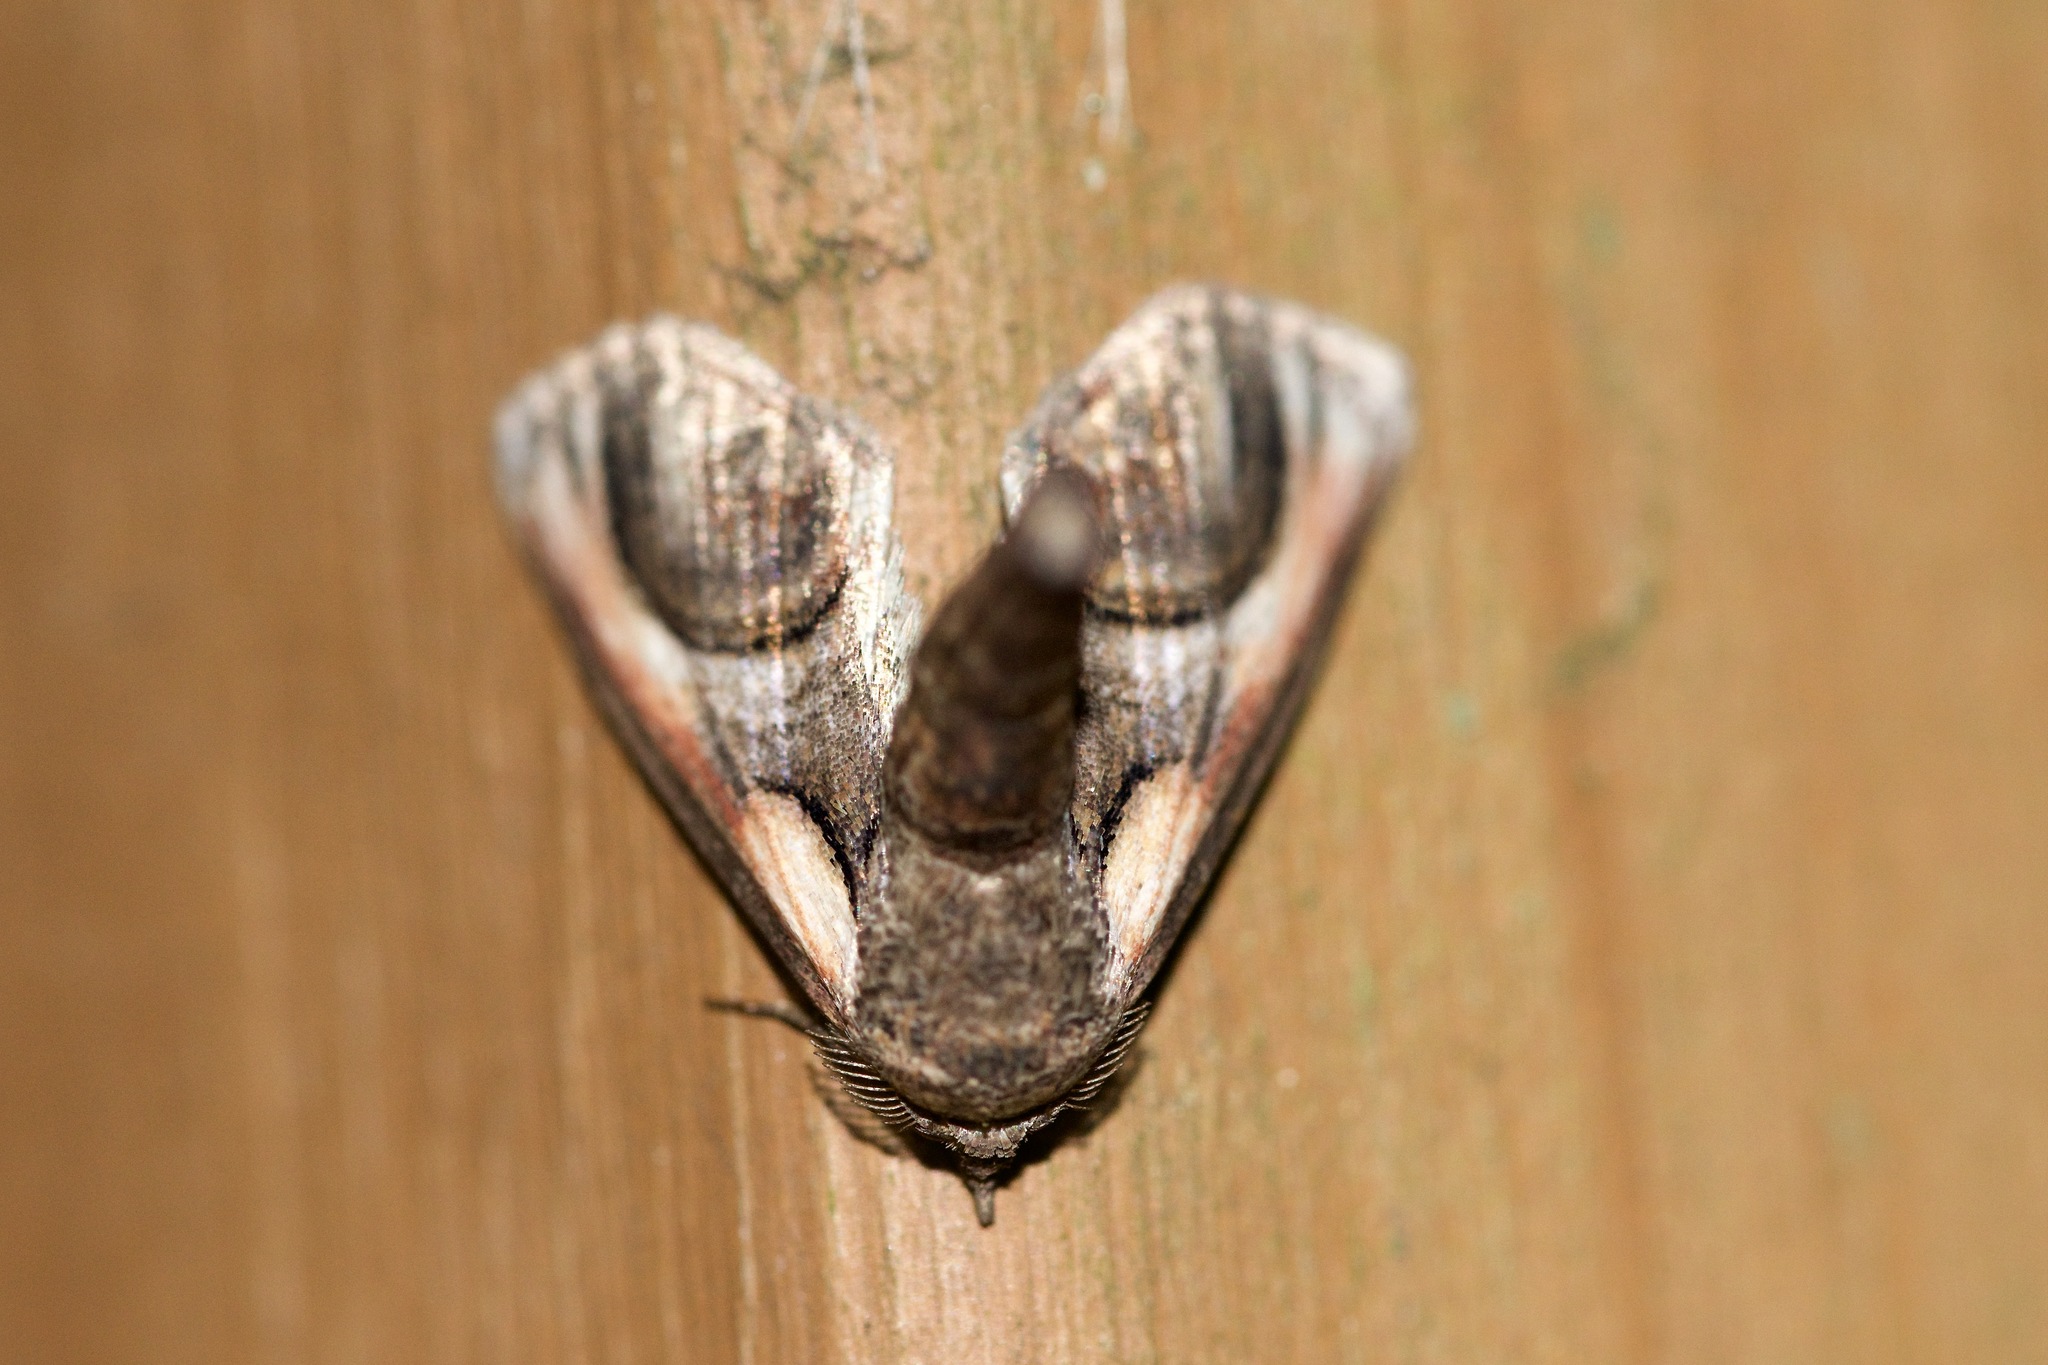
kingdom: Animalia
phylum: Arthropoda
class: Insecta
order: Lepidoptera
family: Euteliidae
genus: Paectes
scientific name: Paectes oculatrix
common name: Eyed paectes moth
